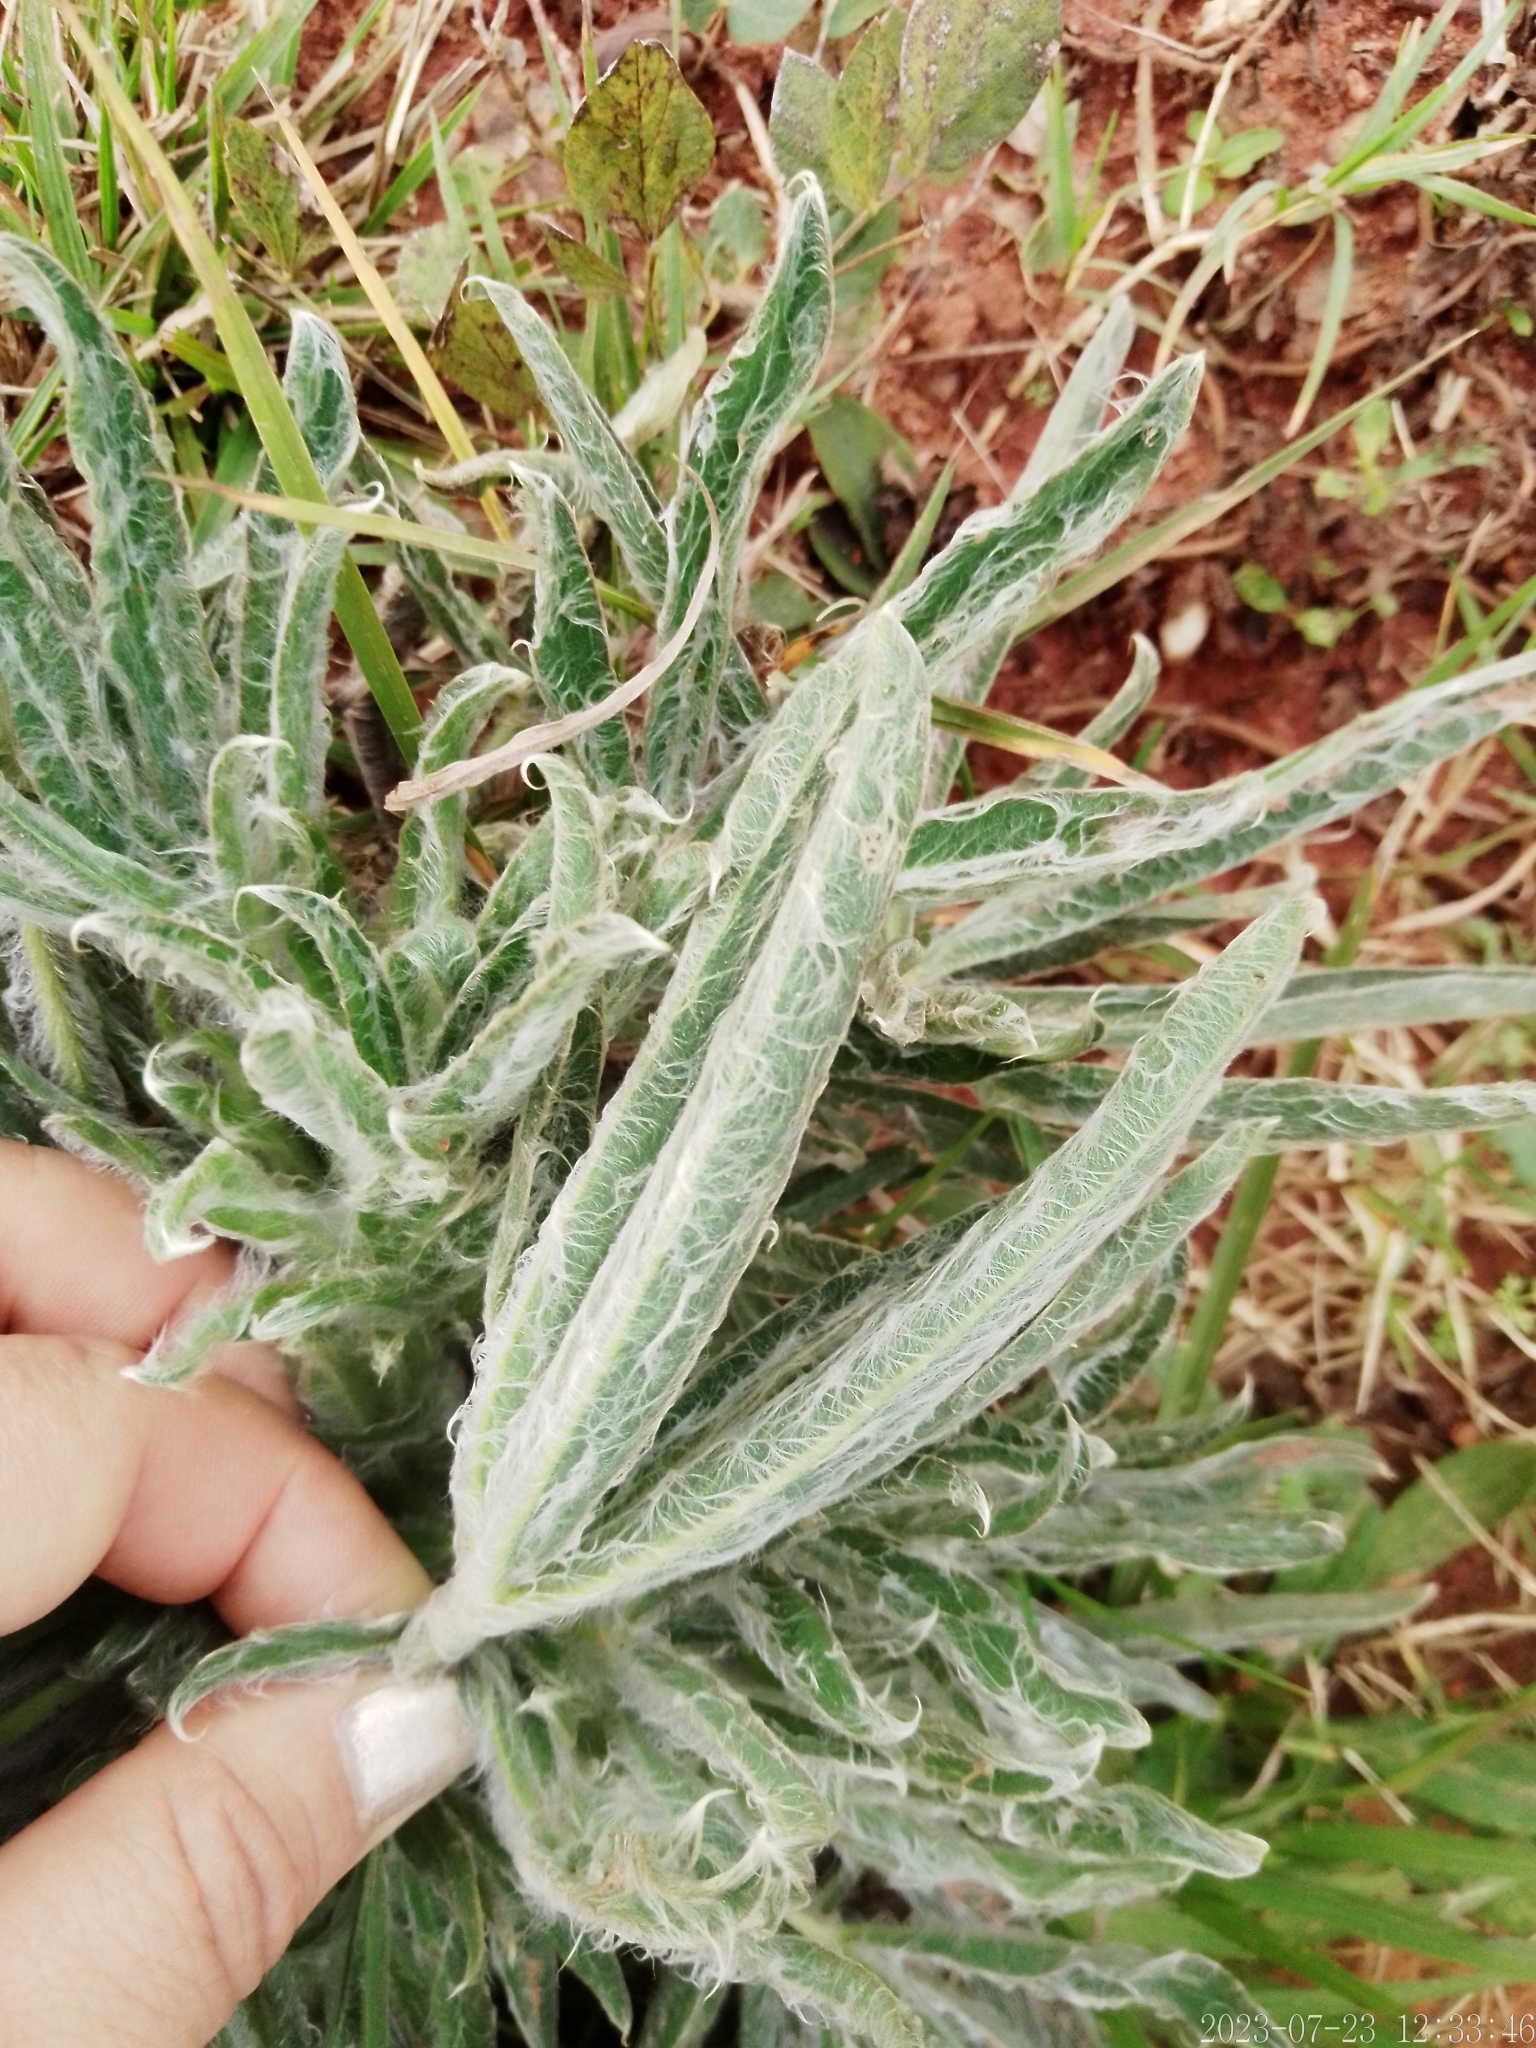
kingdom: Plantae
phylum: Tracheophyta
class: Magnoliopsida
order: Fabales
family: Fabaceae
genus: Lupinus
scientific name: Lupinus lanatus
